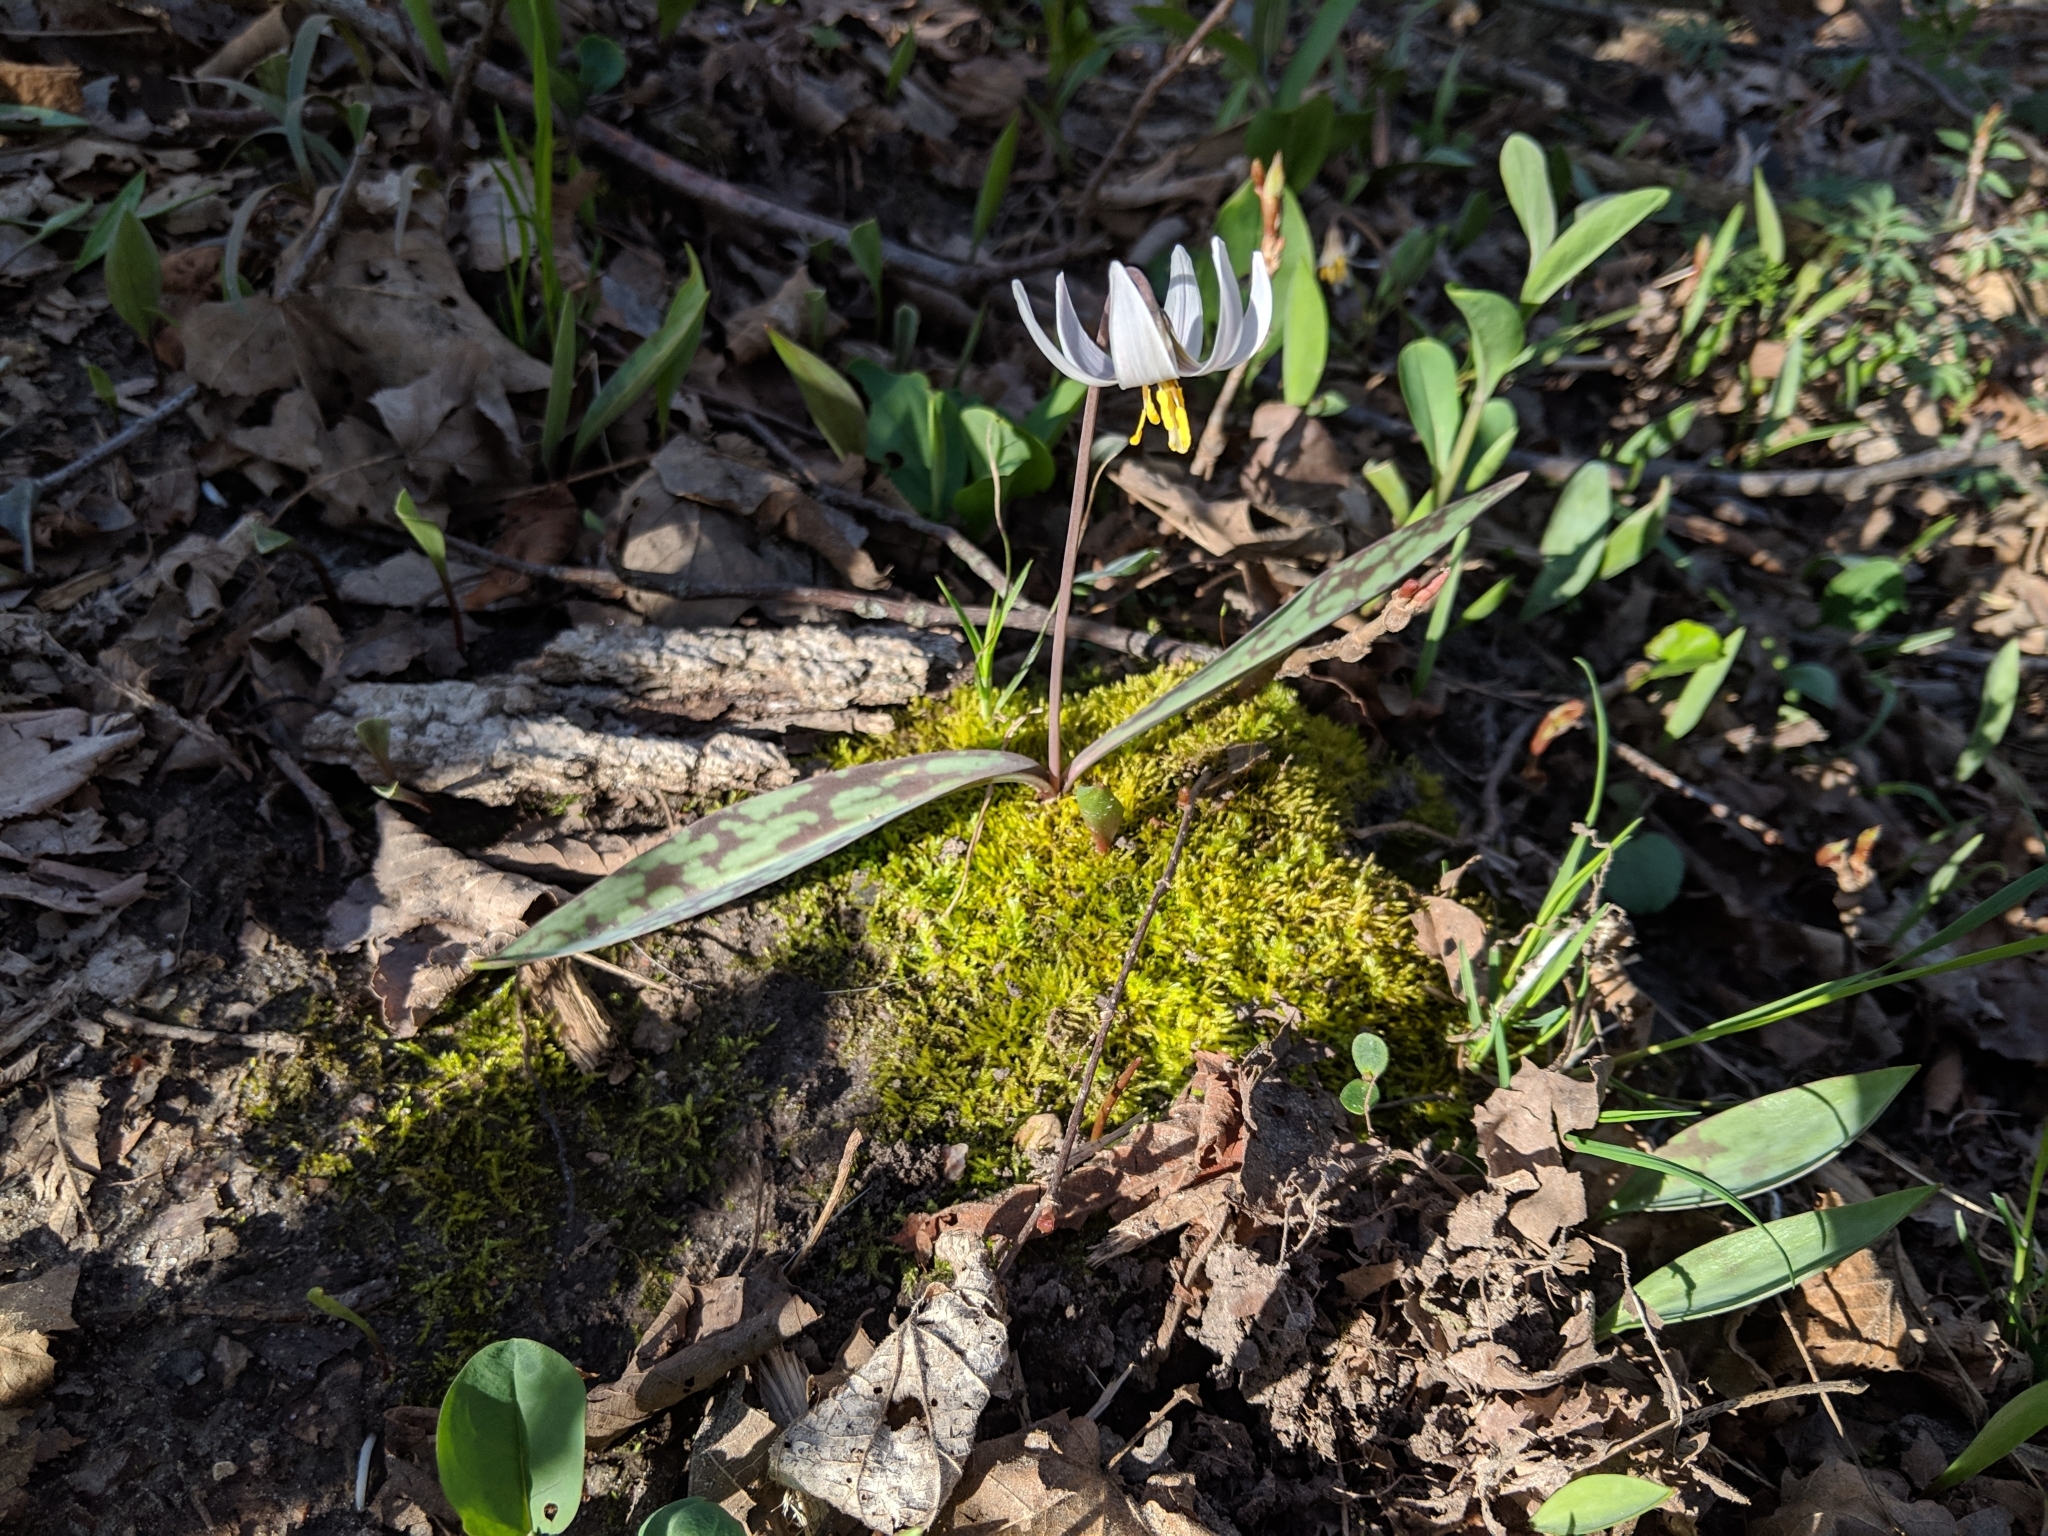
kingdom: Plantae
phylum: Tracheophyta
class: Liliopsida
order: Liliales
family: Liliaceae
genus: Erythronium
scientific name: Erythronium albidum
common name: White trout-lily
